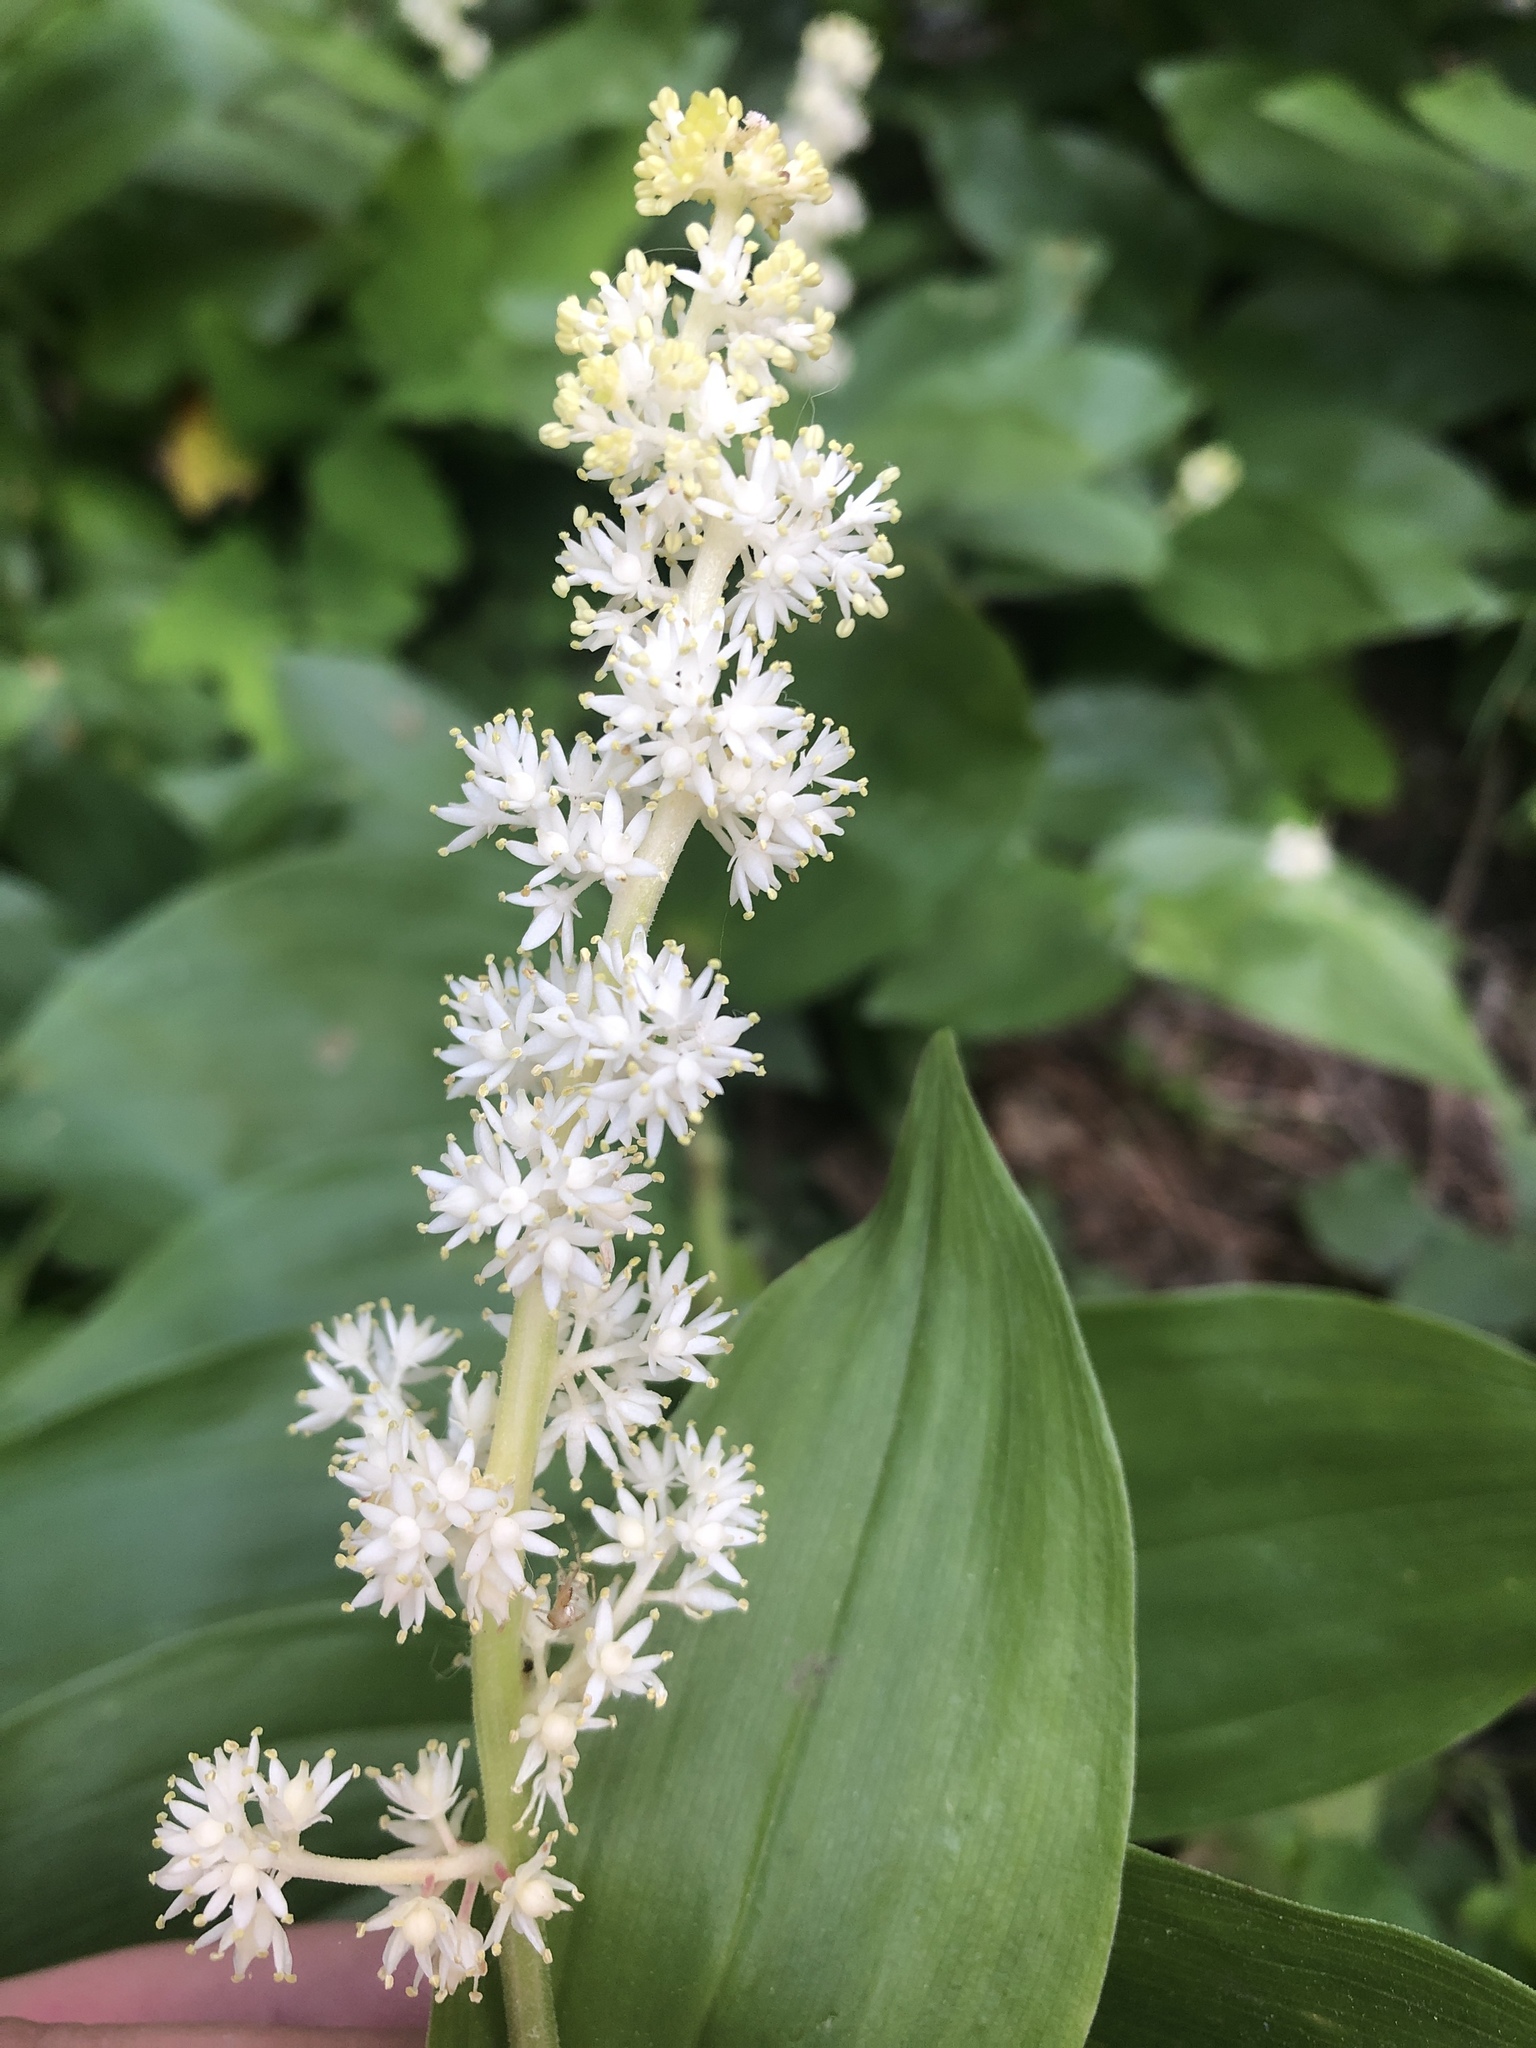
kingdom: Plantae
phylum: Tracheophyta
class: Liliopsida
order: Asparagales
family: Asparagaceae
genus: Maianthemum
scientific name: Maianthemum racemosum
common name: False spikenard
